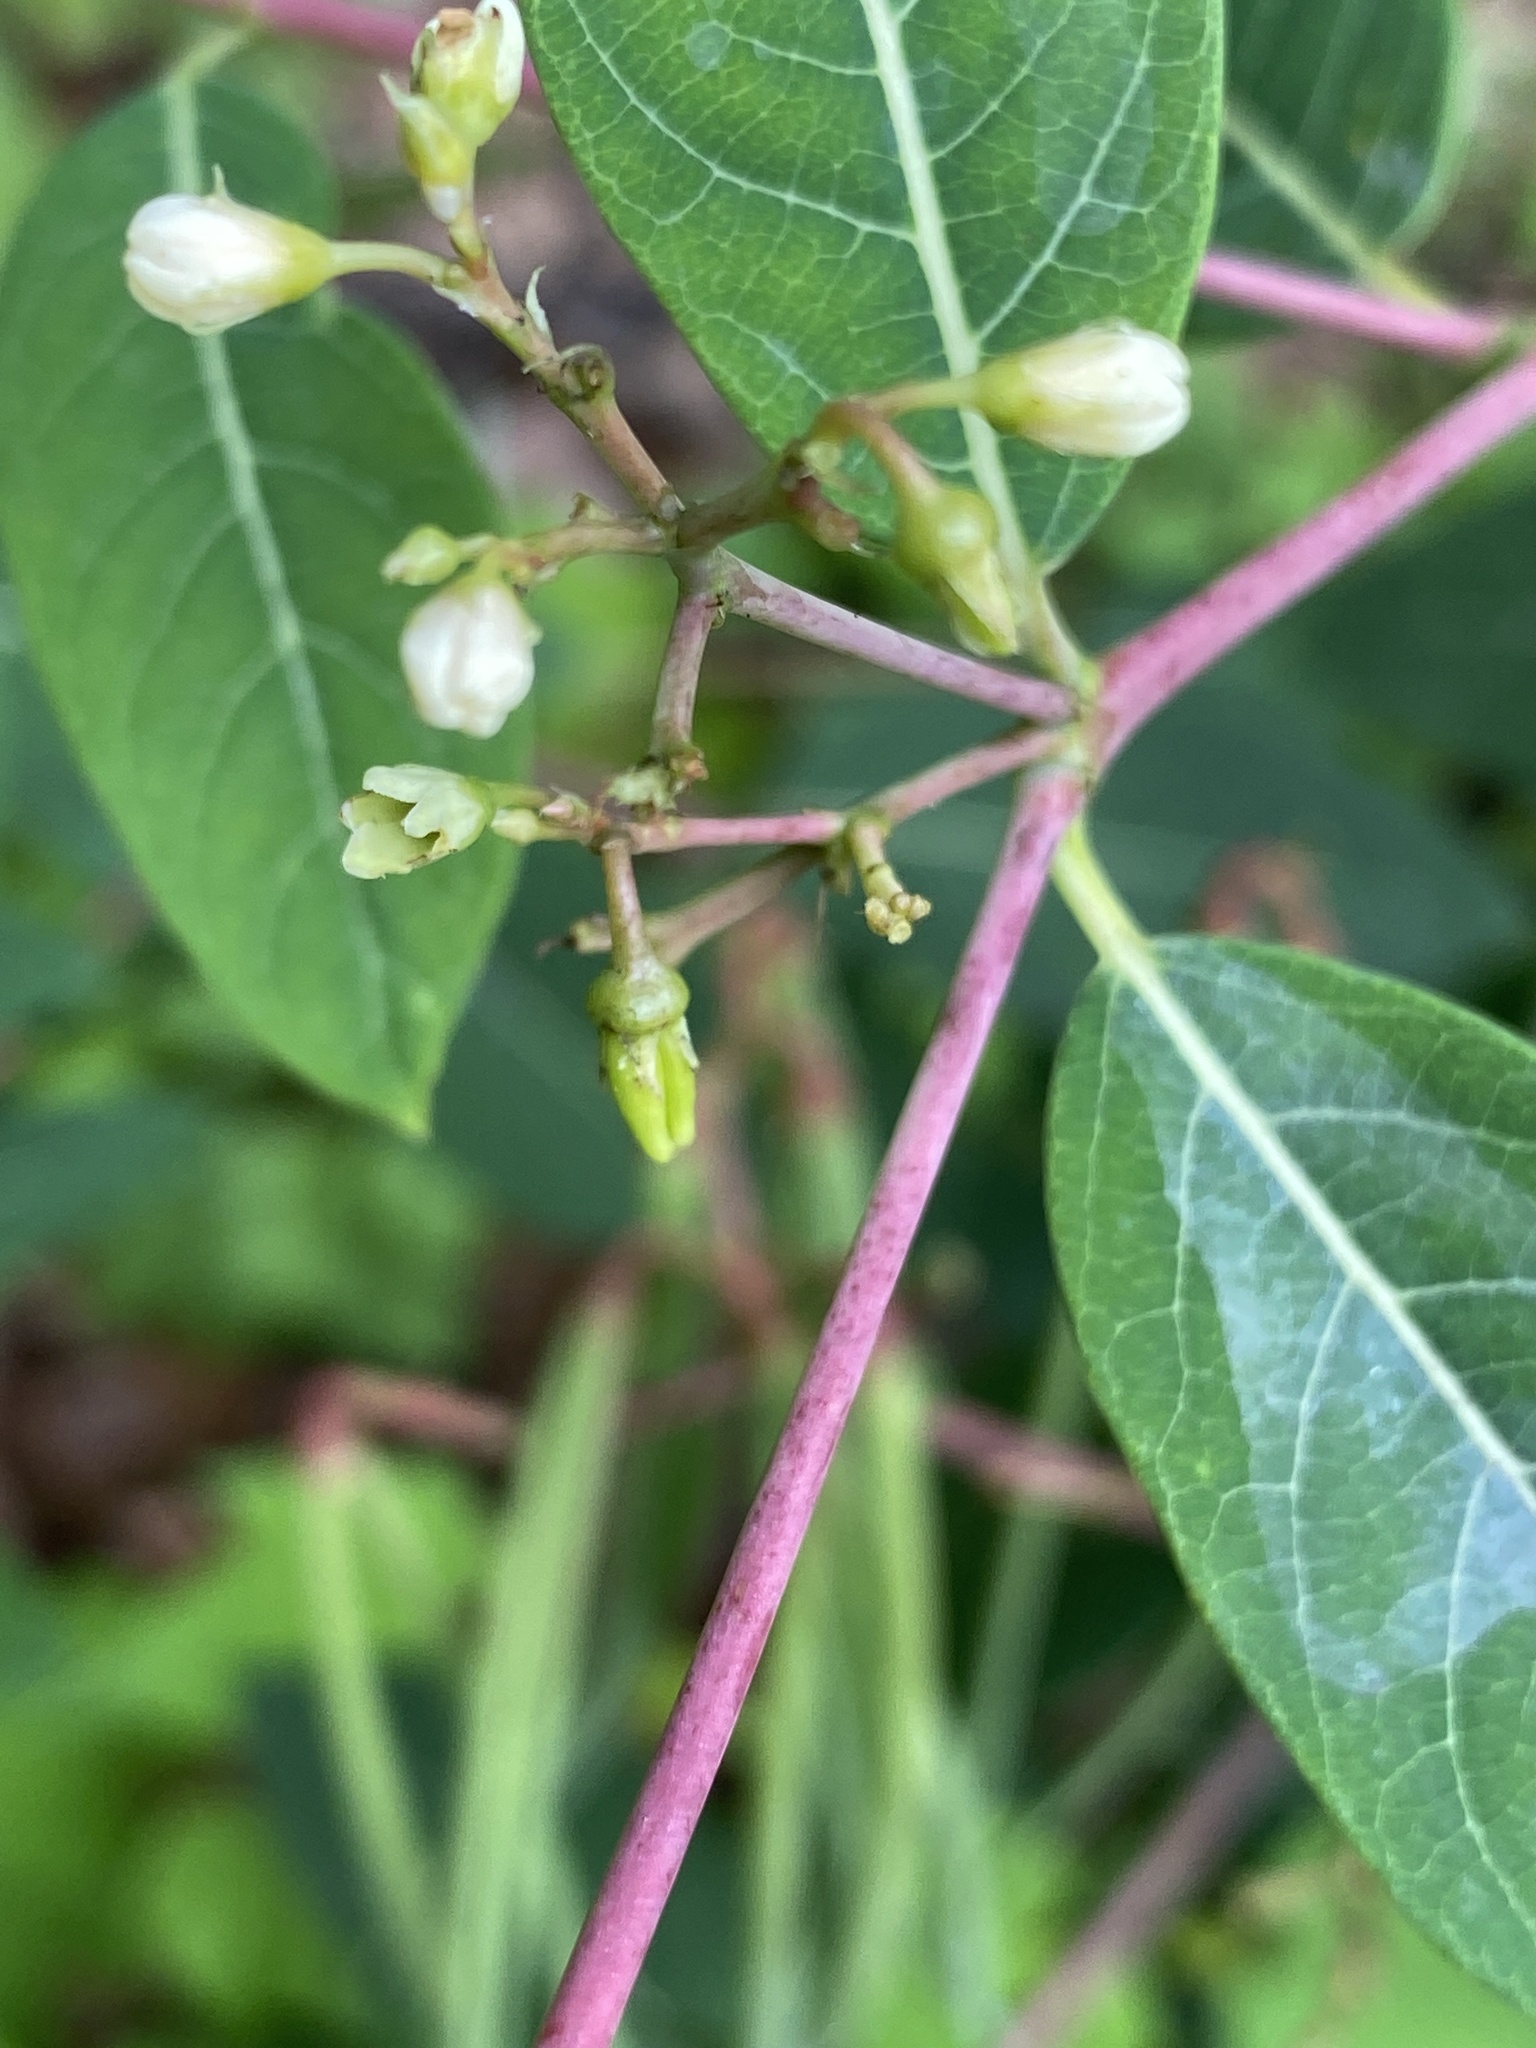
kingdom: Plantae
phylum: Tracheophyta
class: Magnoliopsida
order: Gentianales
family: Apocynaceae
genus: Apocynum
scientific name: Apocynum cannabinum
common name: Hemp dogbane
